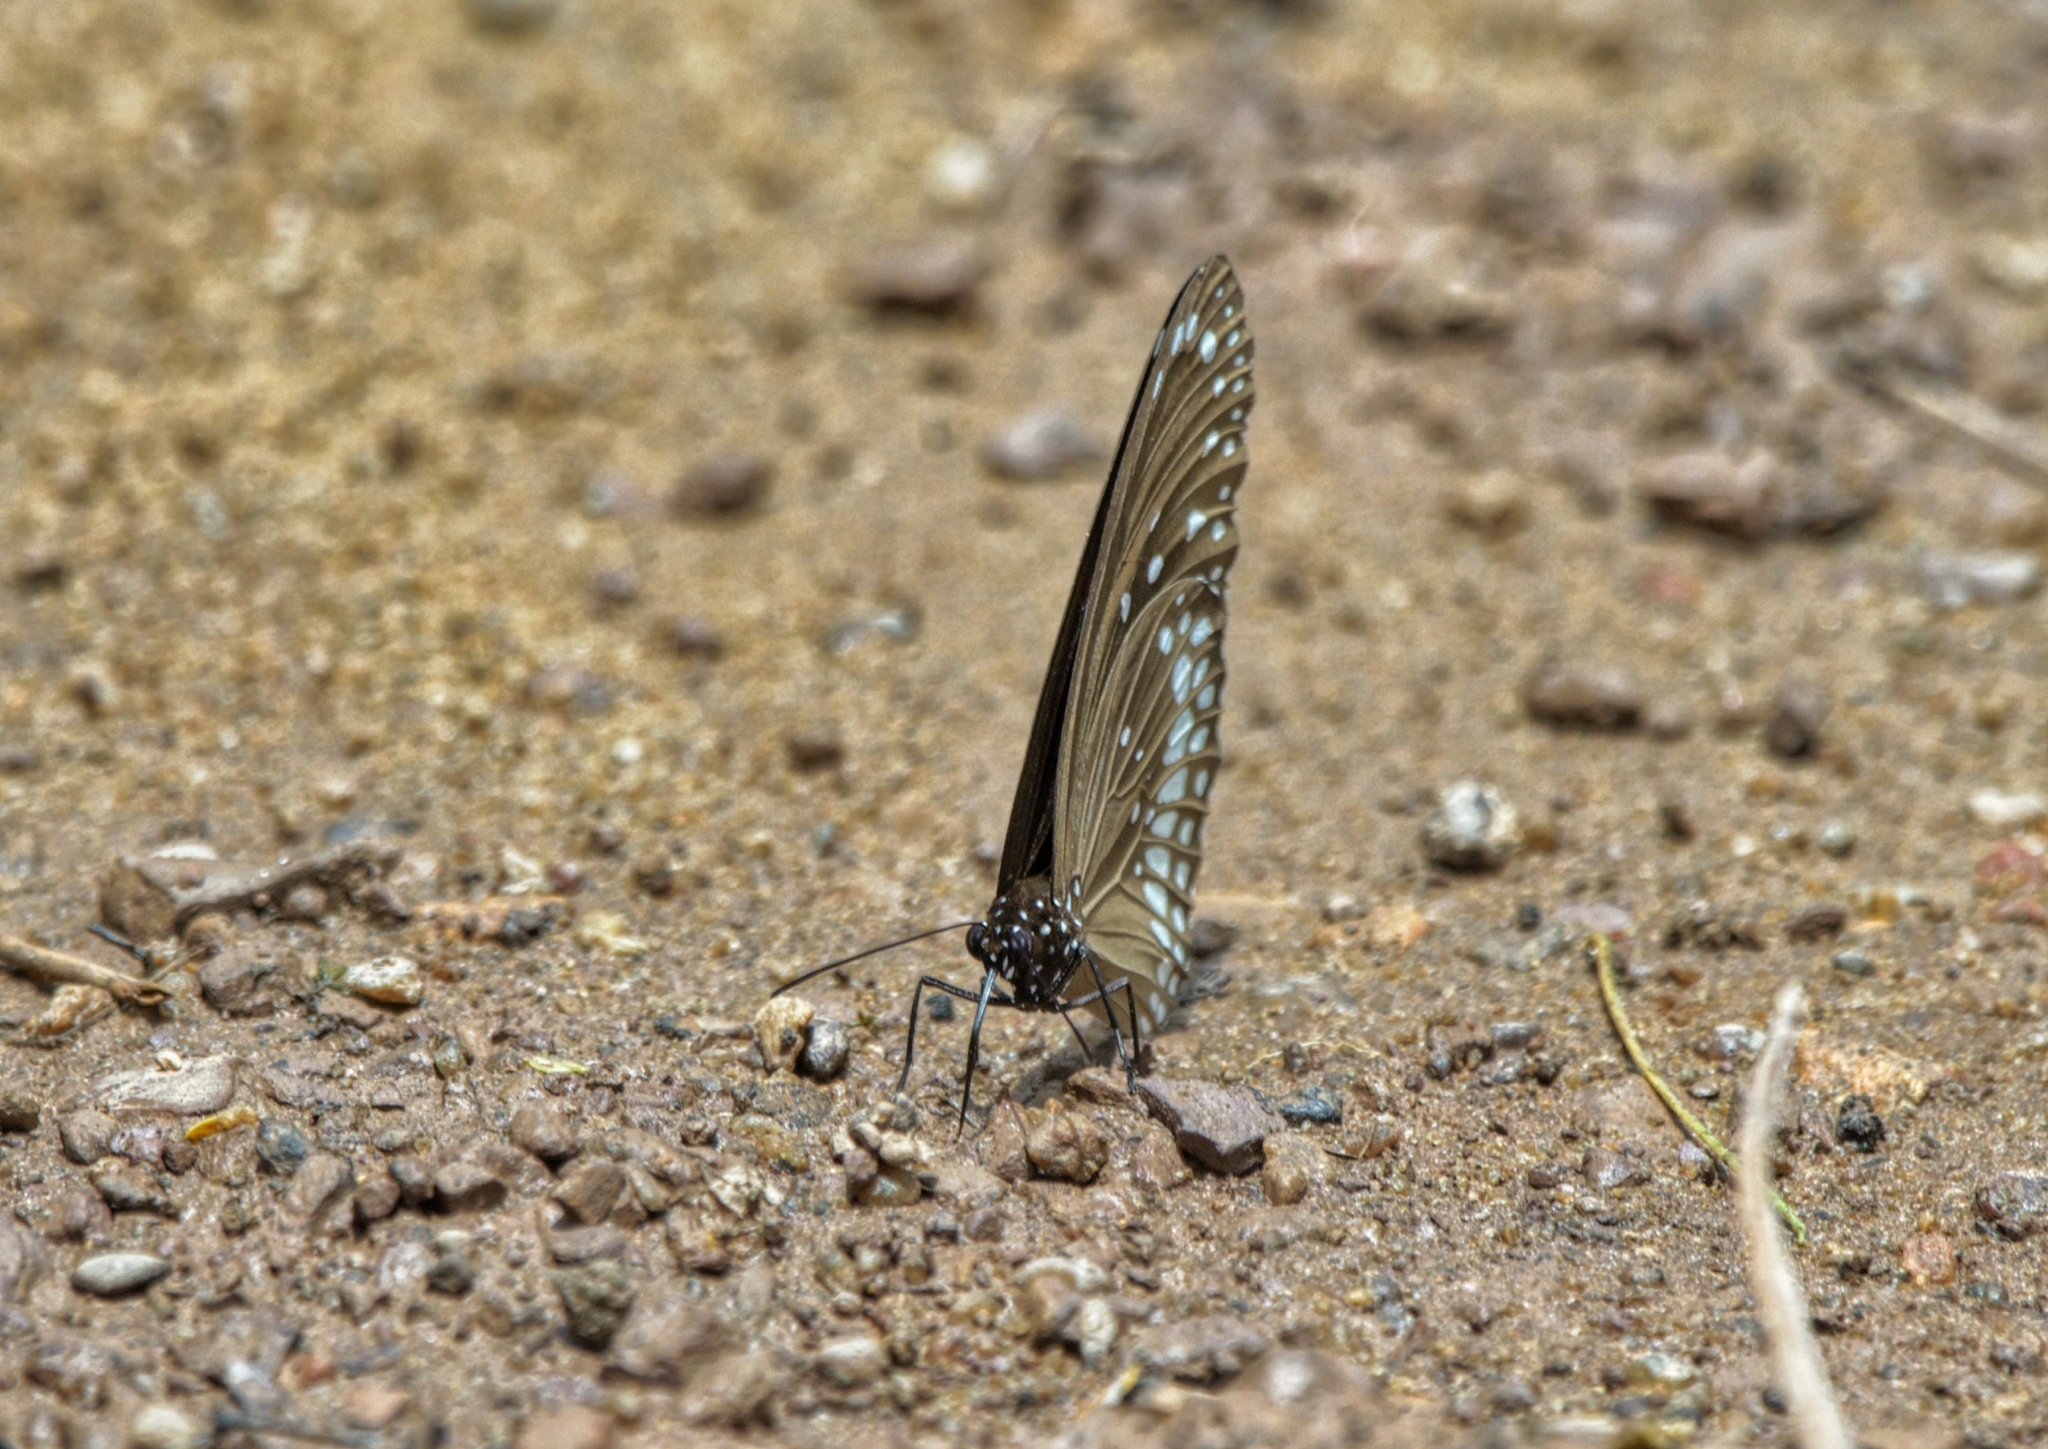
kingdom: Animalia
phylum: Arthropoda
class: Insecta
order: Lepidoptera
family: Nymphalidae
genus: Euploea
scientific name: Euploea core
